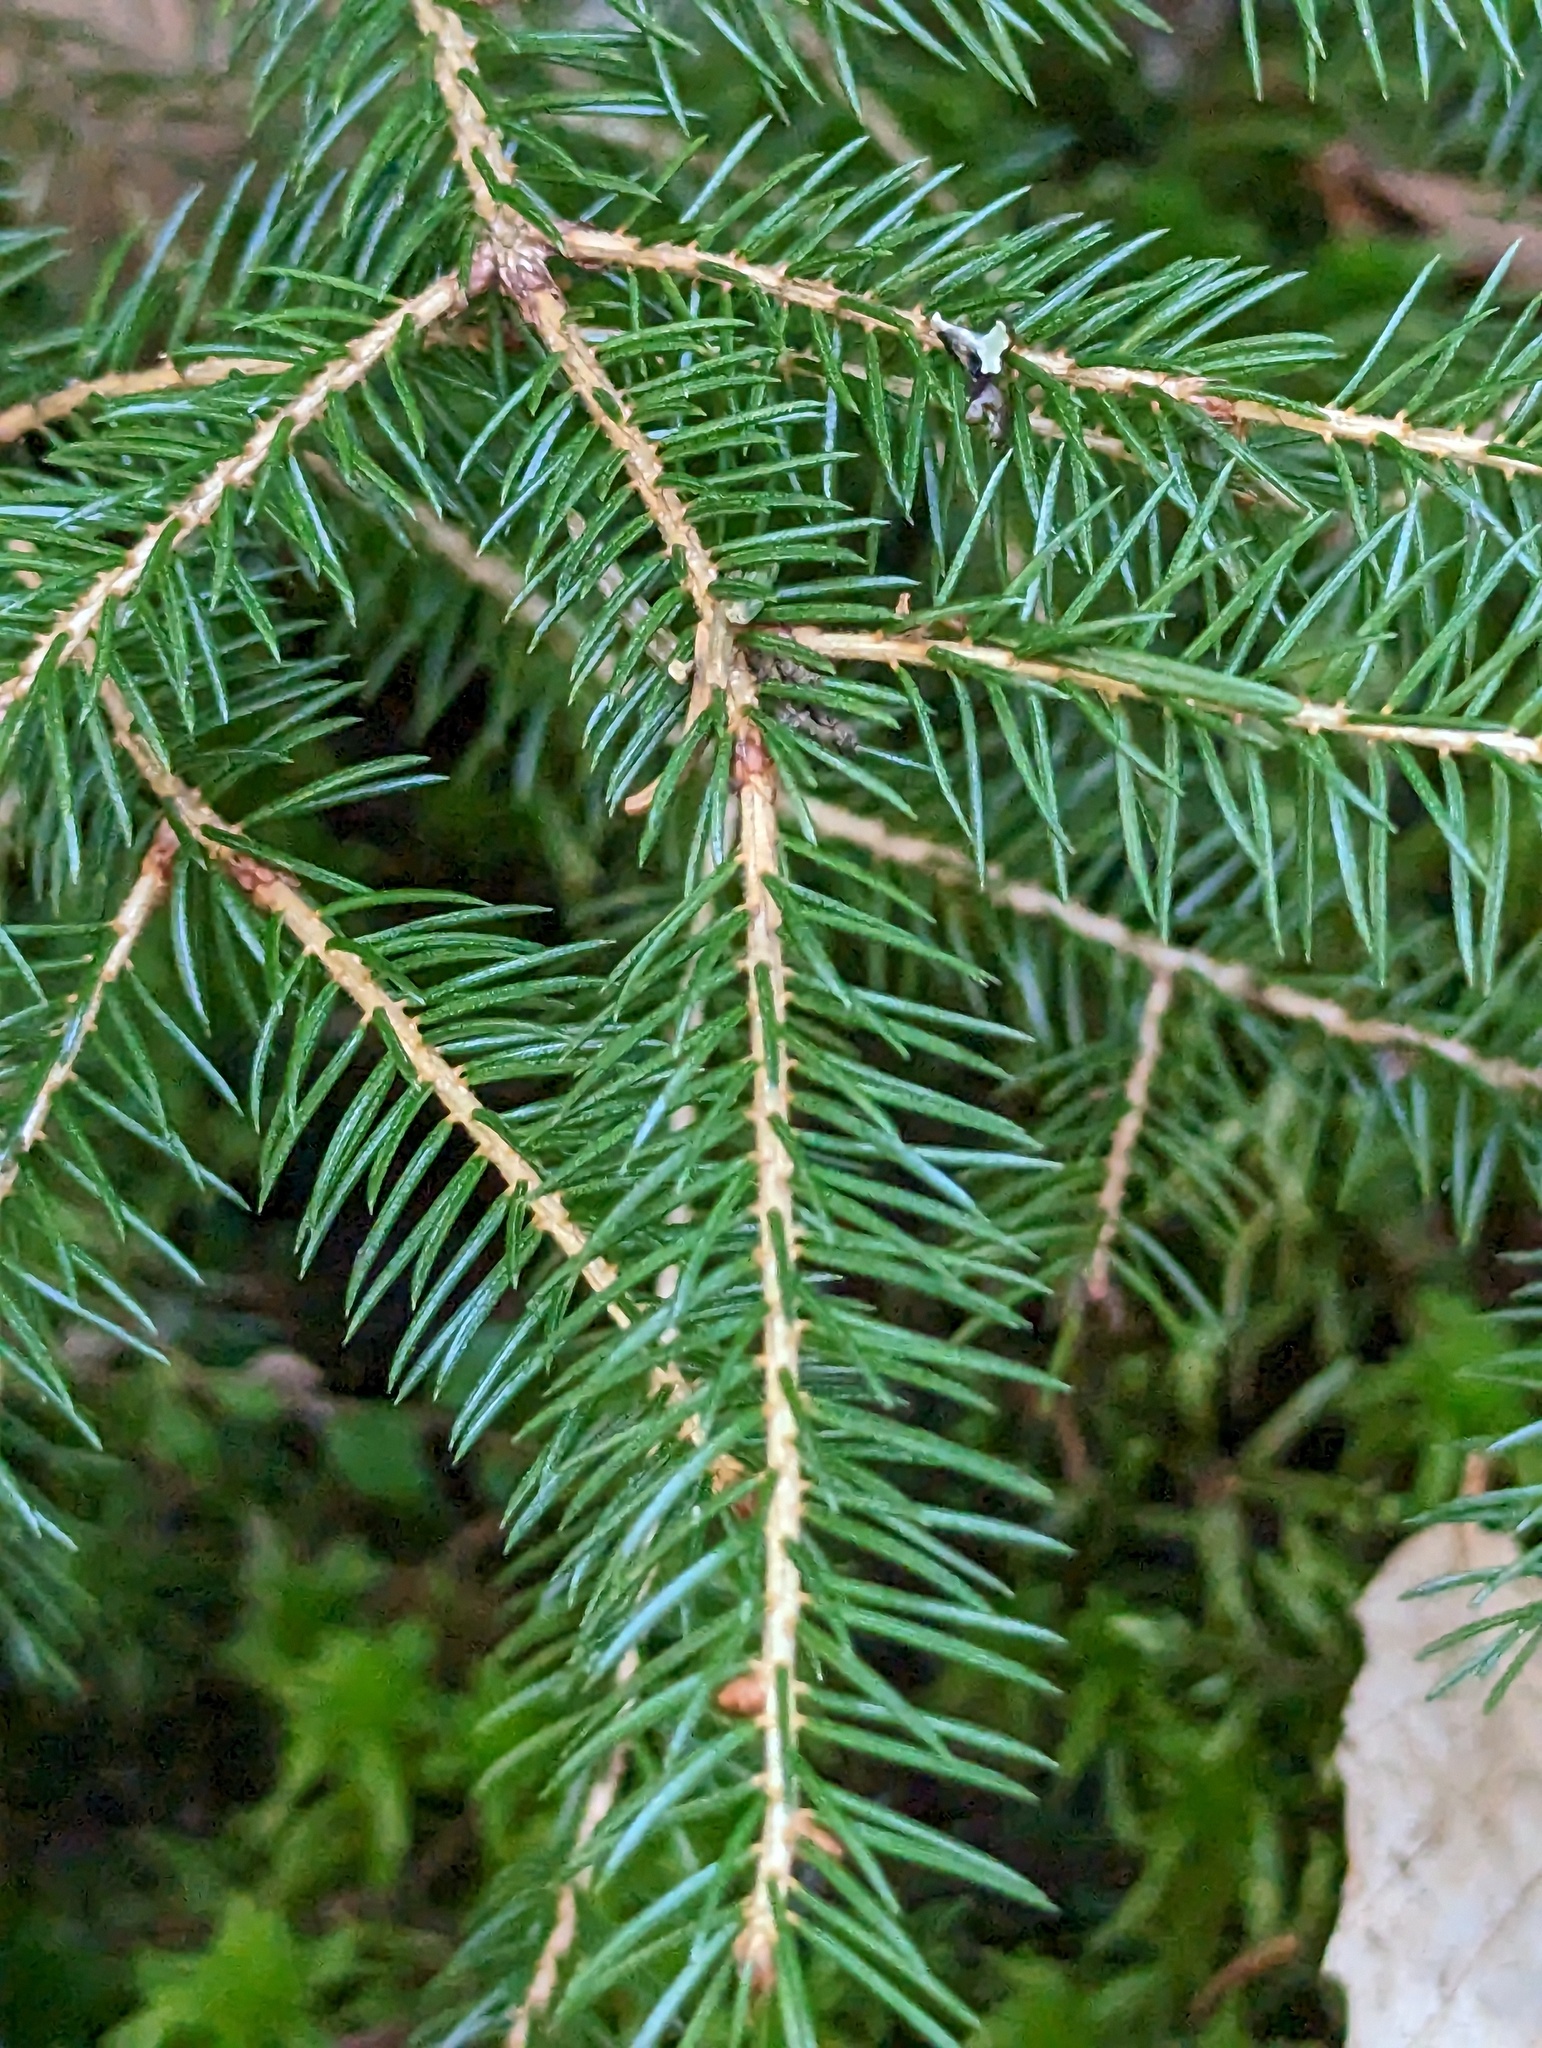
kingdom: Plantae
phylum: Tracheophyta
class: Pinopsida
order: Pinales
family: Pinaceae
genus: Picea
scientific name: Picea rubens
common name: Red spruce
